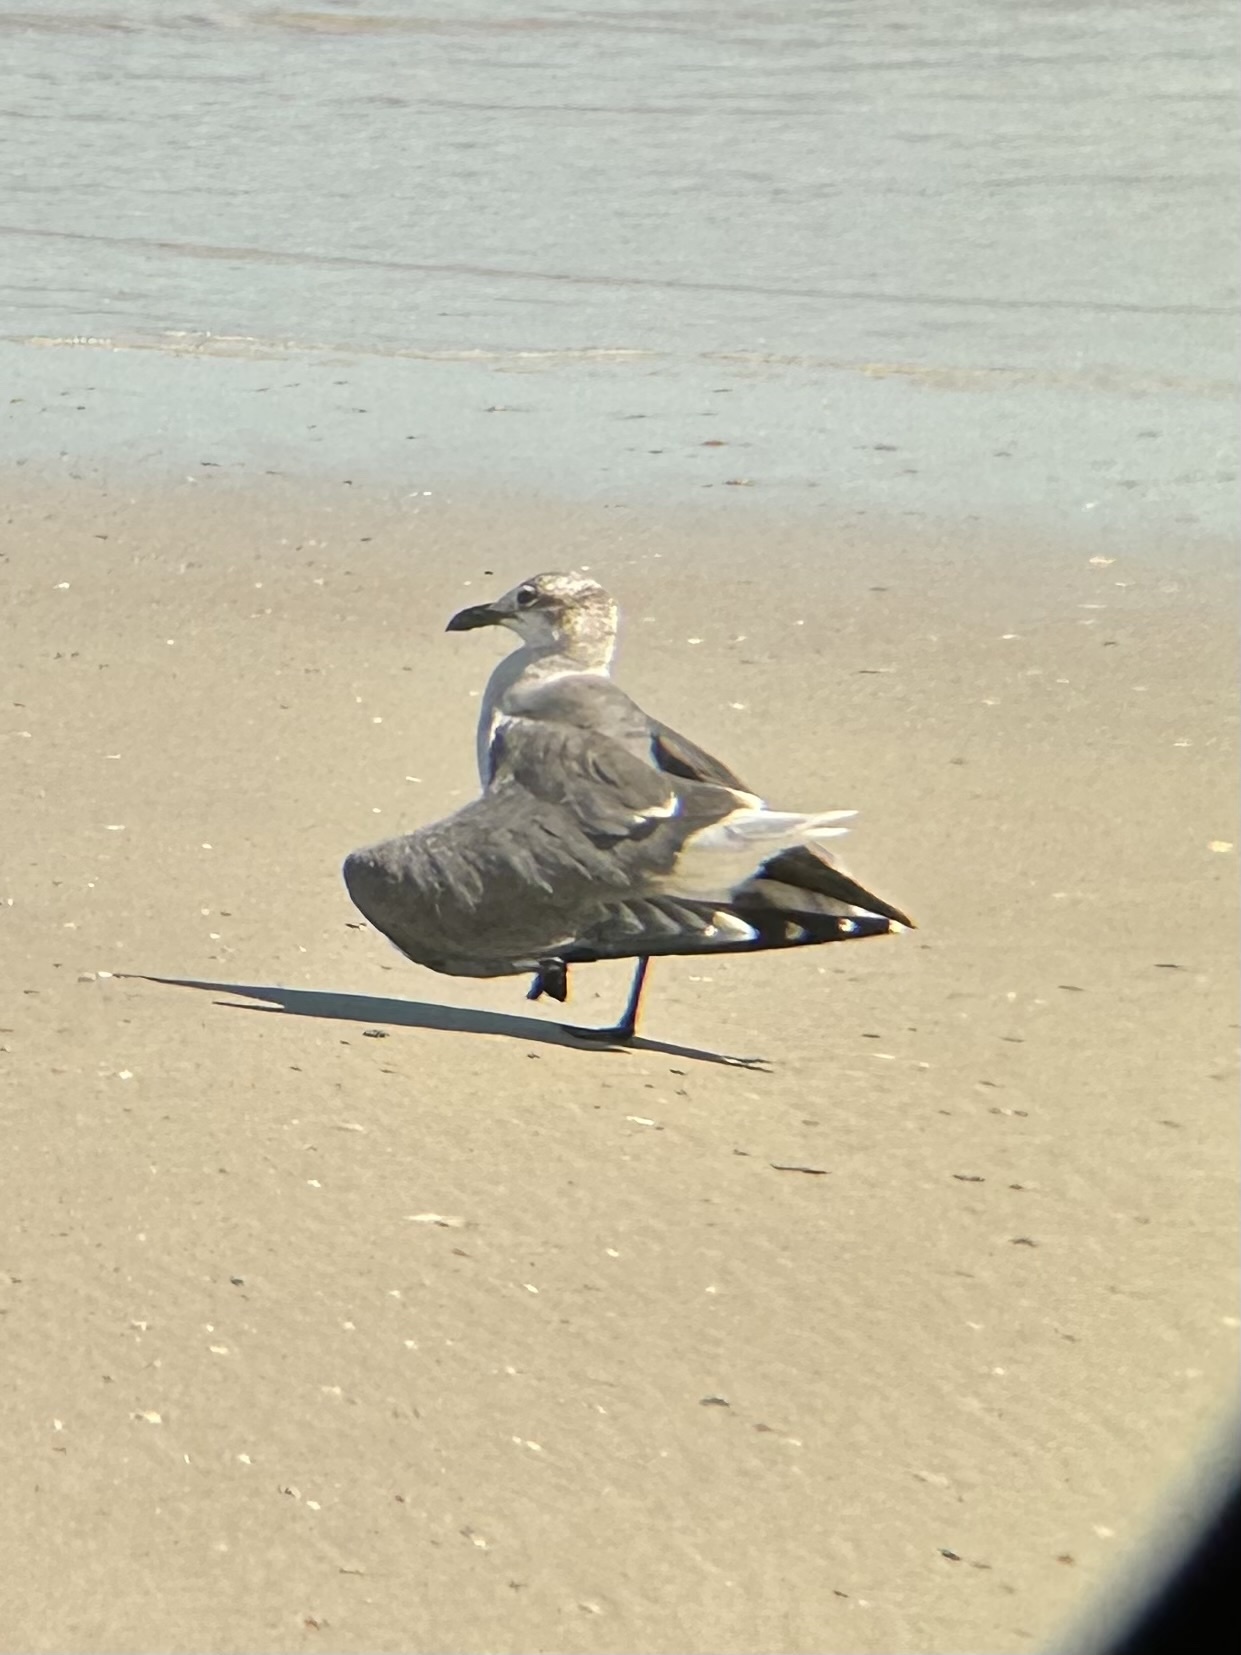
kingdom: Animalia
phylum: Chordata
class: Aves
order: Charadriiformes
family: Laridae
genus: Leucophaeus
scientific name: Leucophaeus atricilla
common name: Laughing gull
